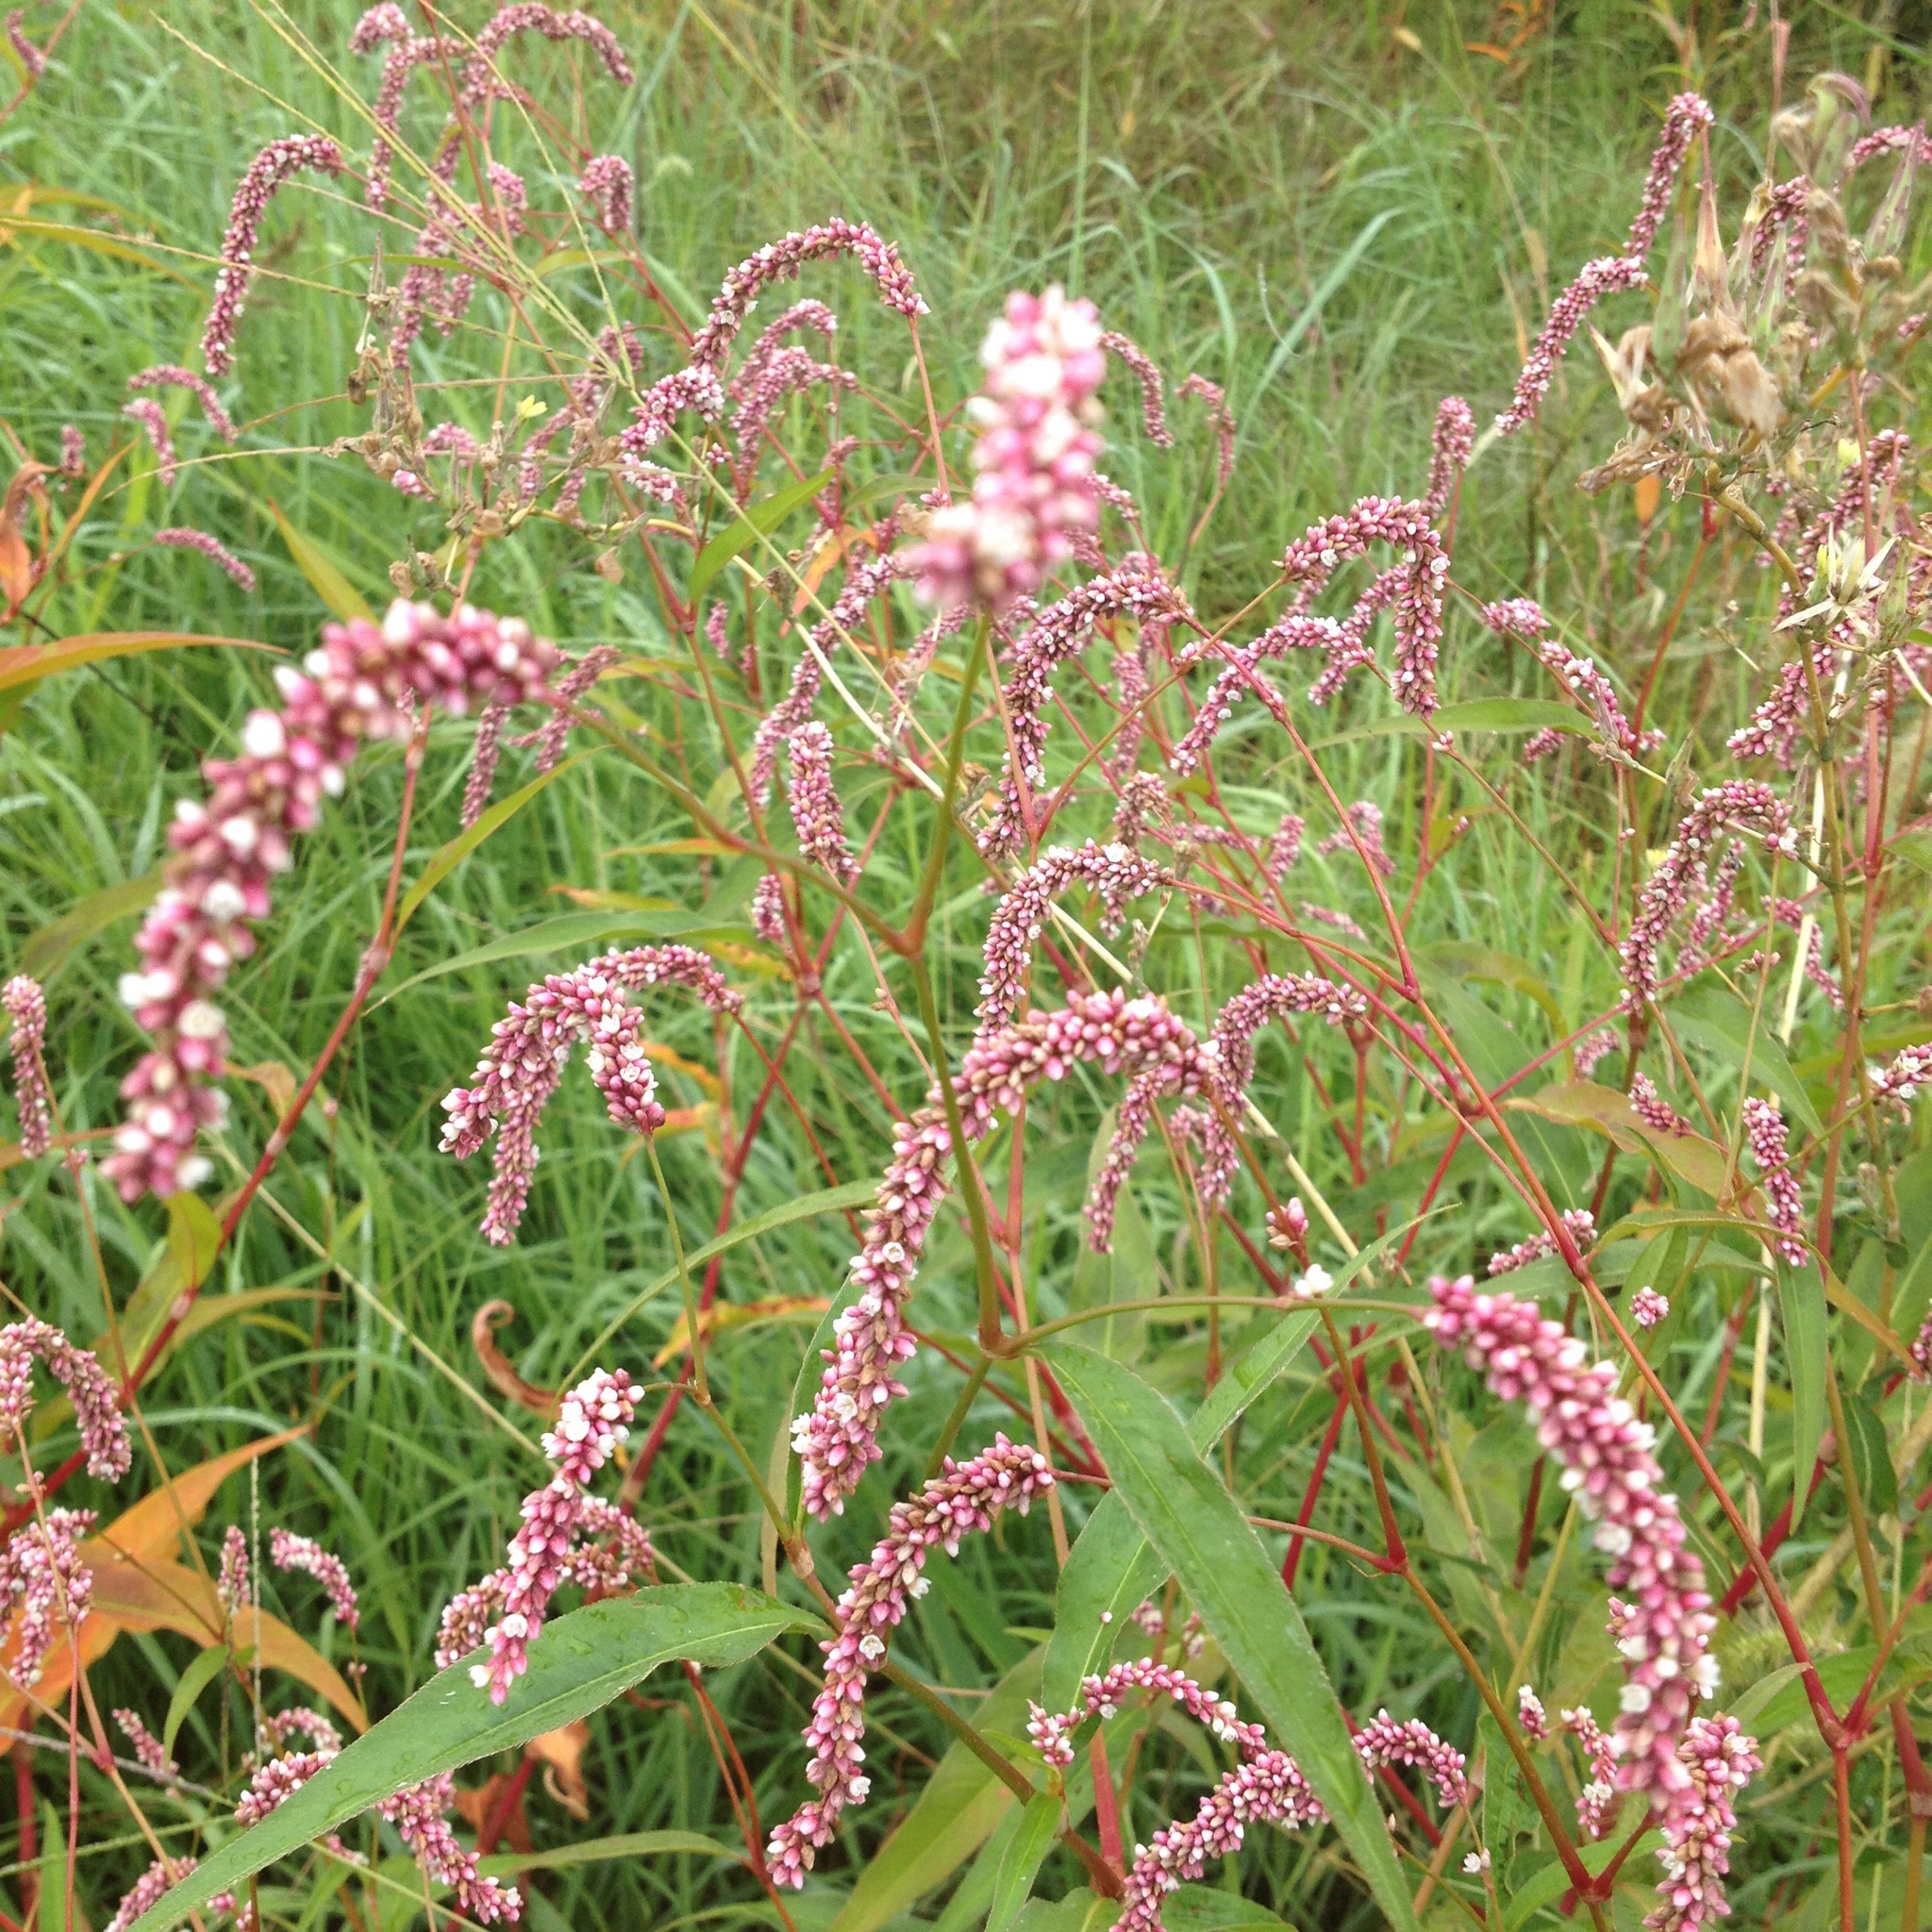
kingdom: Plantae
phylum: Tracheophyta
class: Magnoliopsida
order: Caryophyllales
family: Polygonaceae
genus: Persicaria
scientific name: Persicaria lapathifolia
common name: Curlytop knotweed
